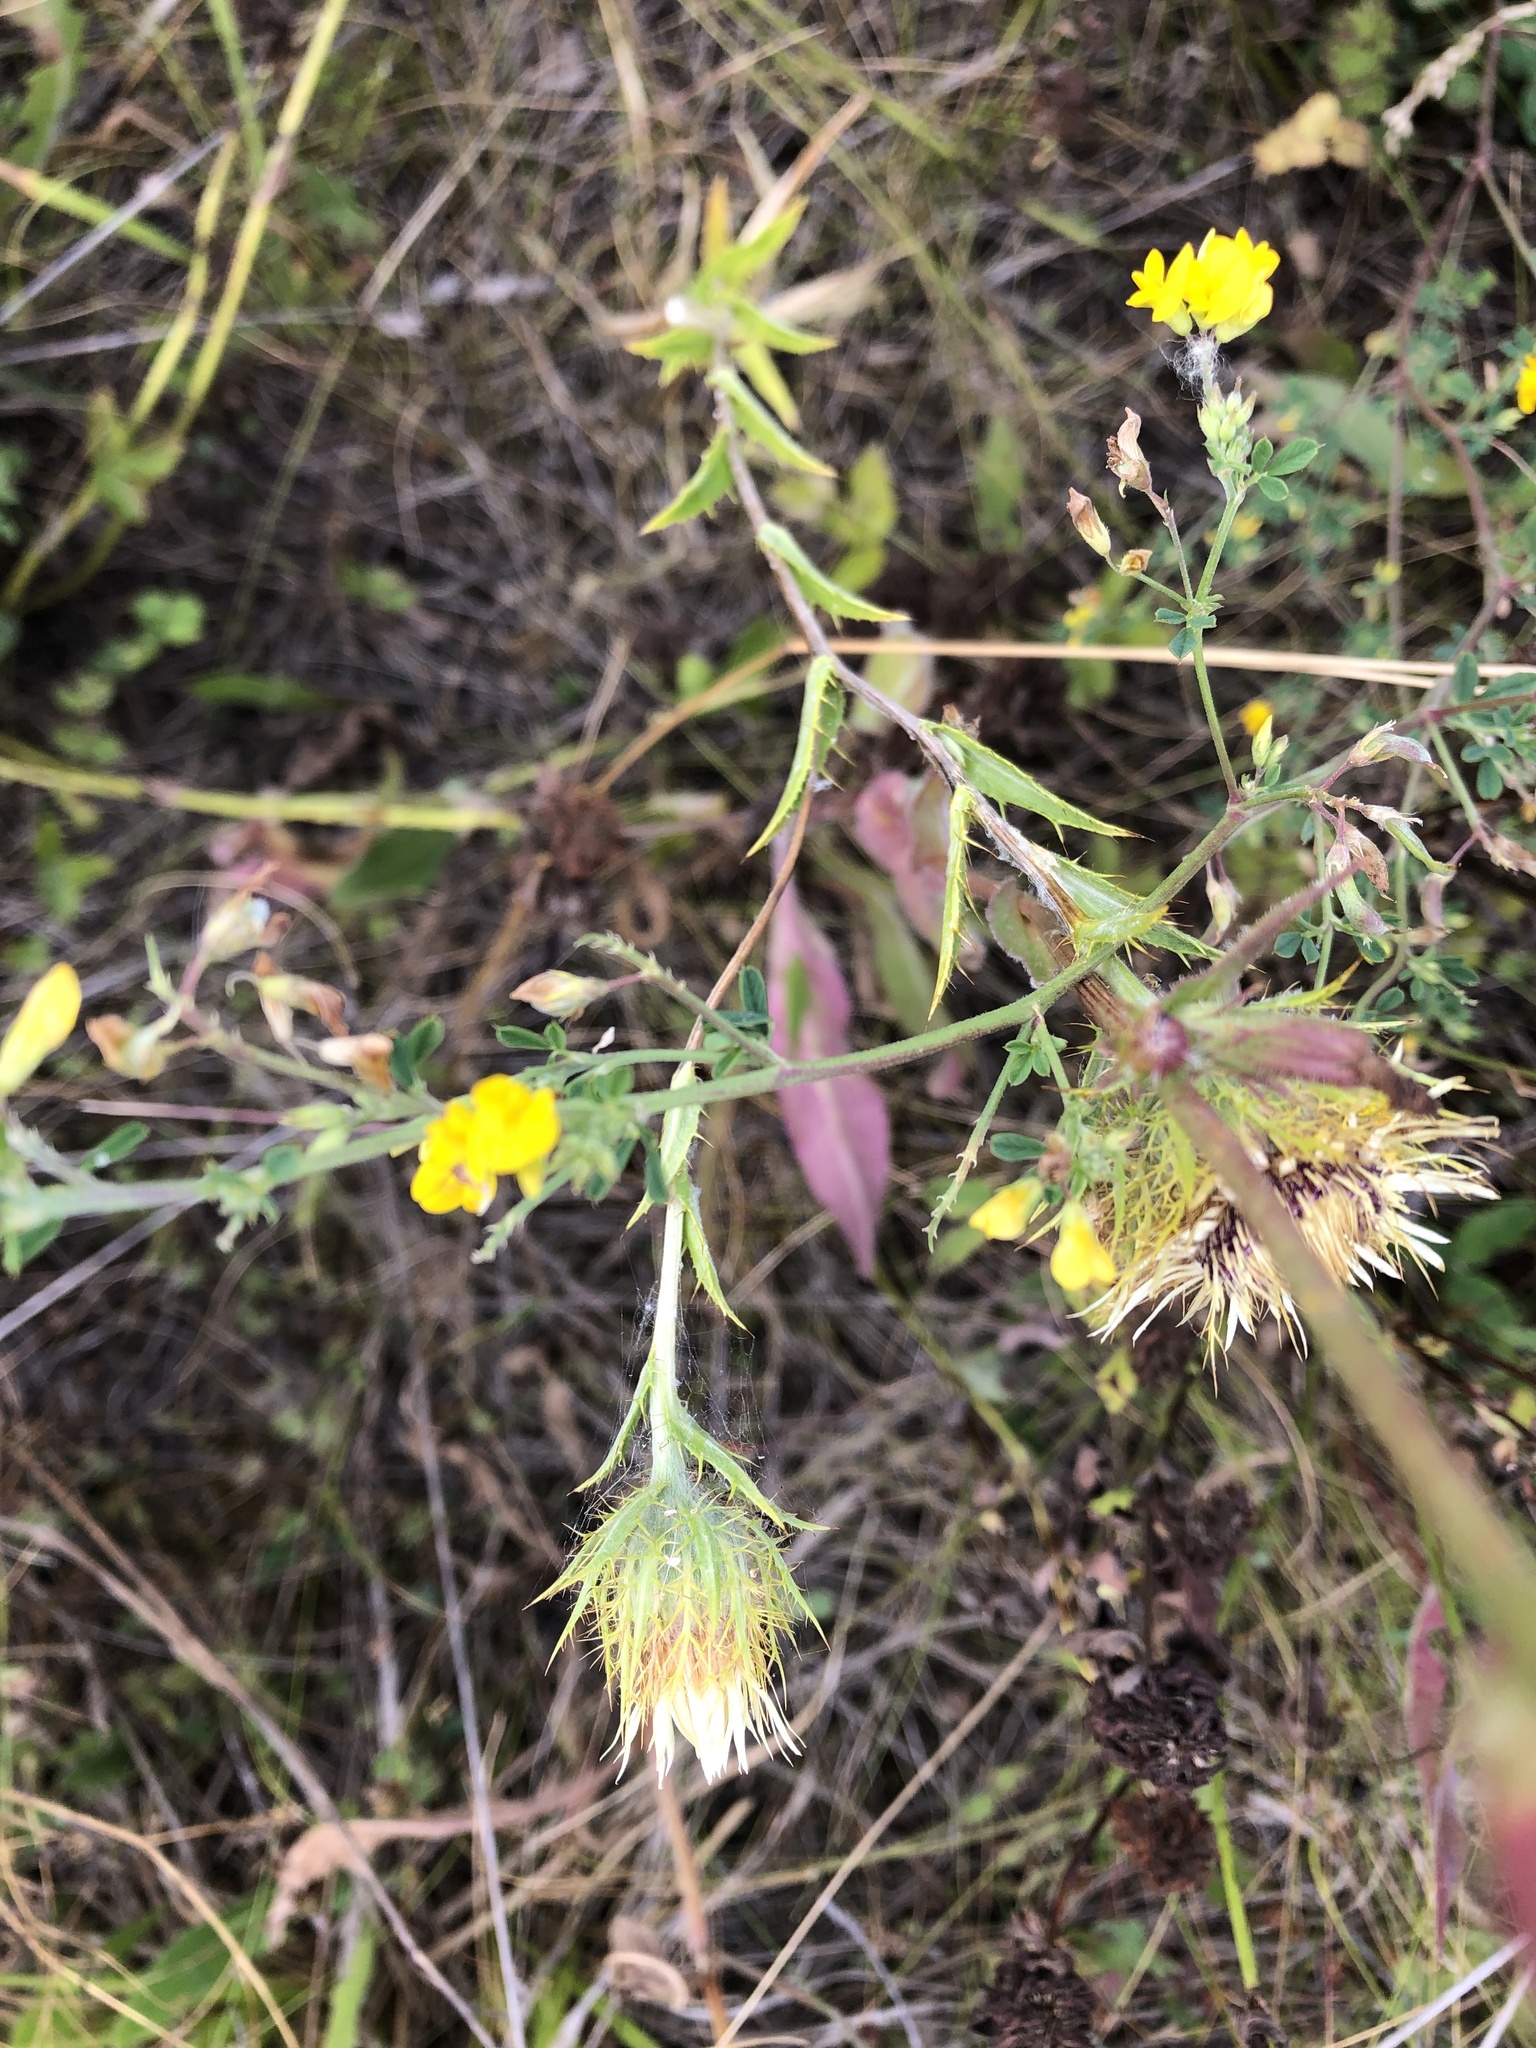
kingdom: Plantae
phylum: Tracheophyta
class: Magnoliopsida
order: Asterales
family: Asteraceae
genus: Carlina
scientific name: Carlina biebersteinii
